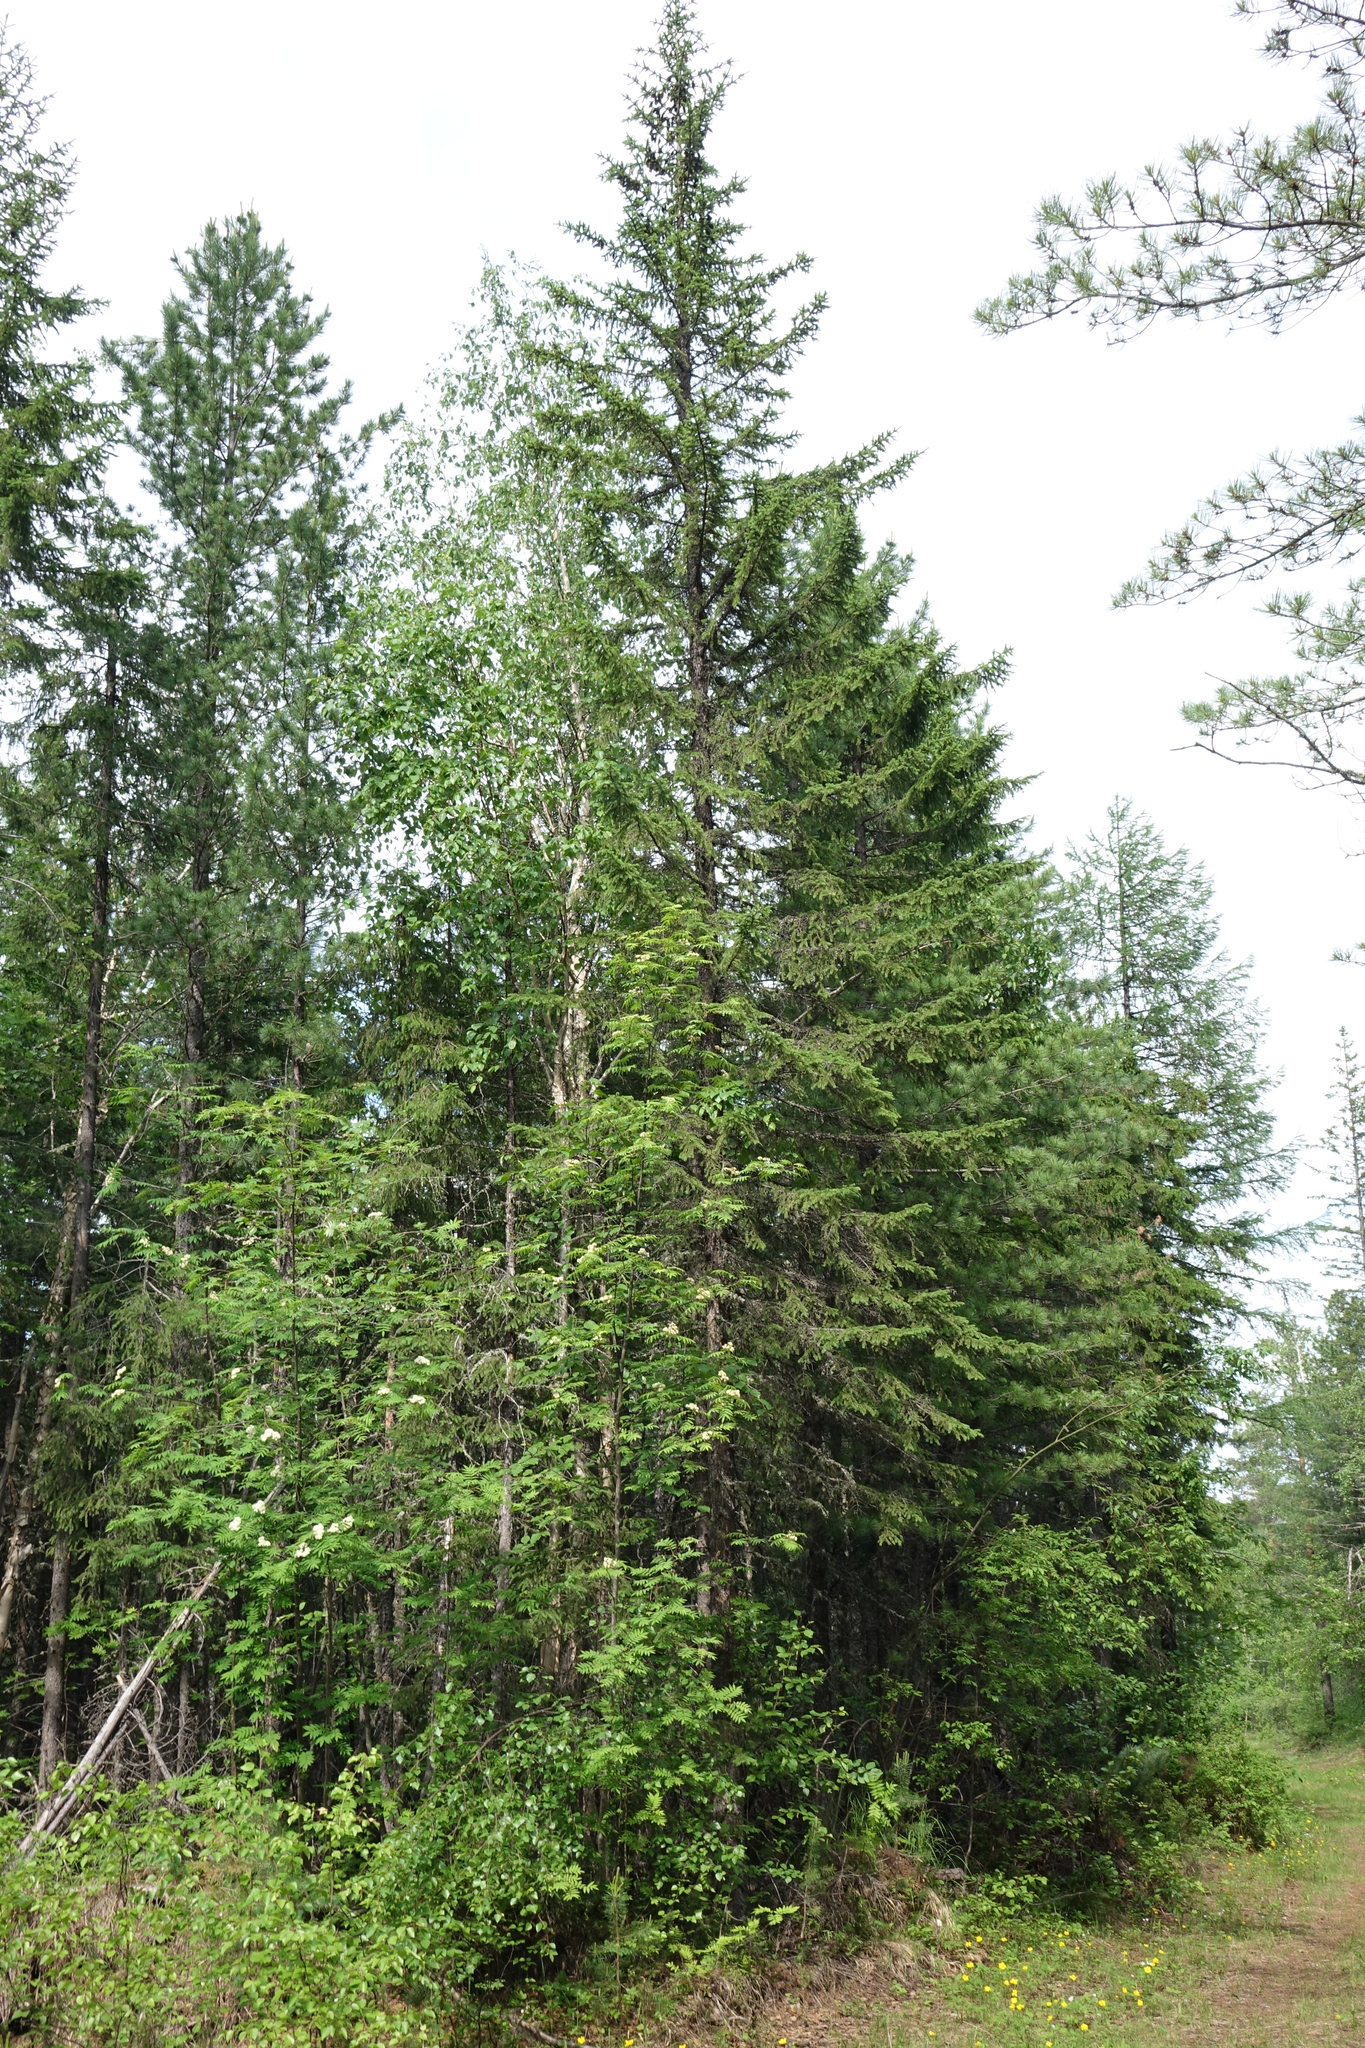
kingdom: Plantae
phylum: Tracheophyta
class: Pinopsida
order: Pinales
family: Pinaceae
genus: Abies
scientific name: Abies sibirica
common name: Siberian fir
